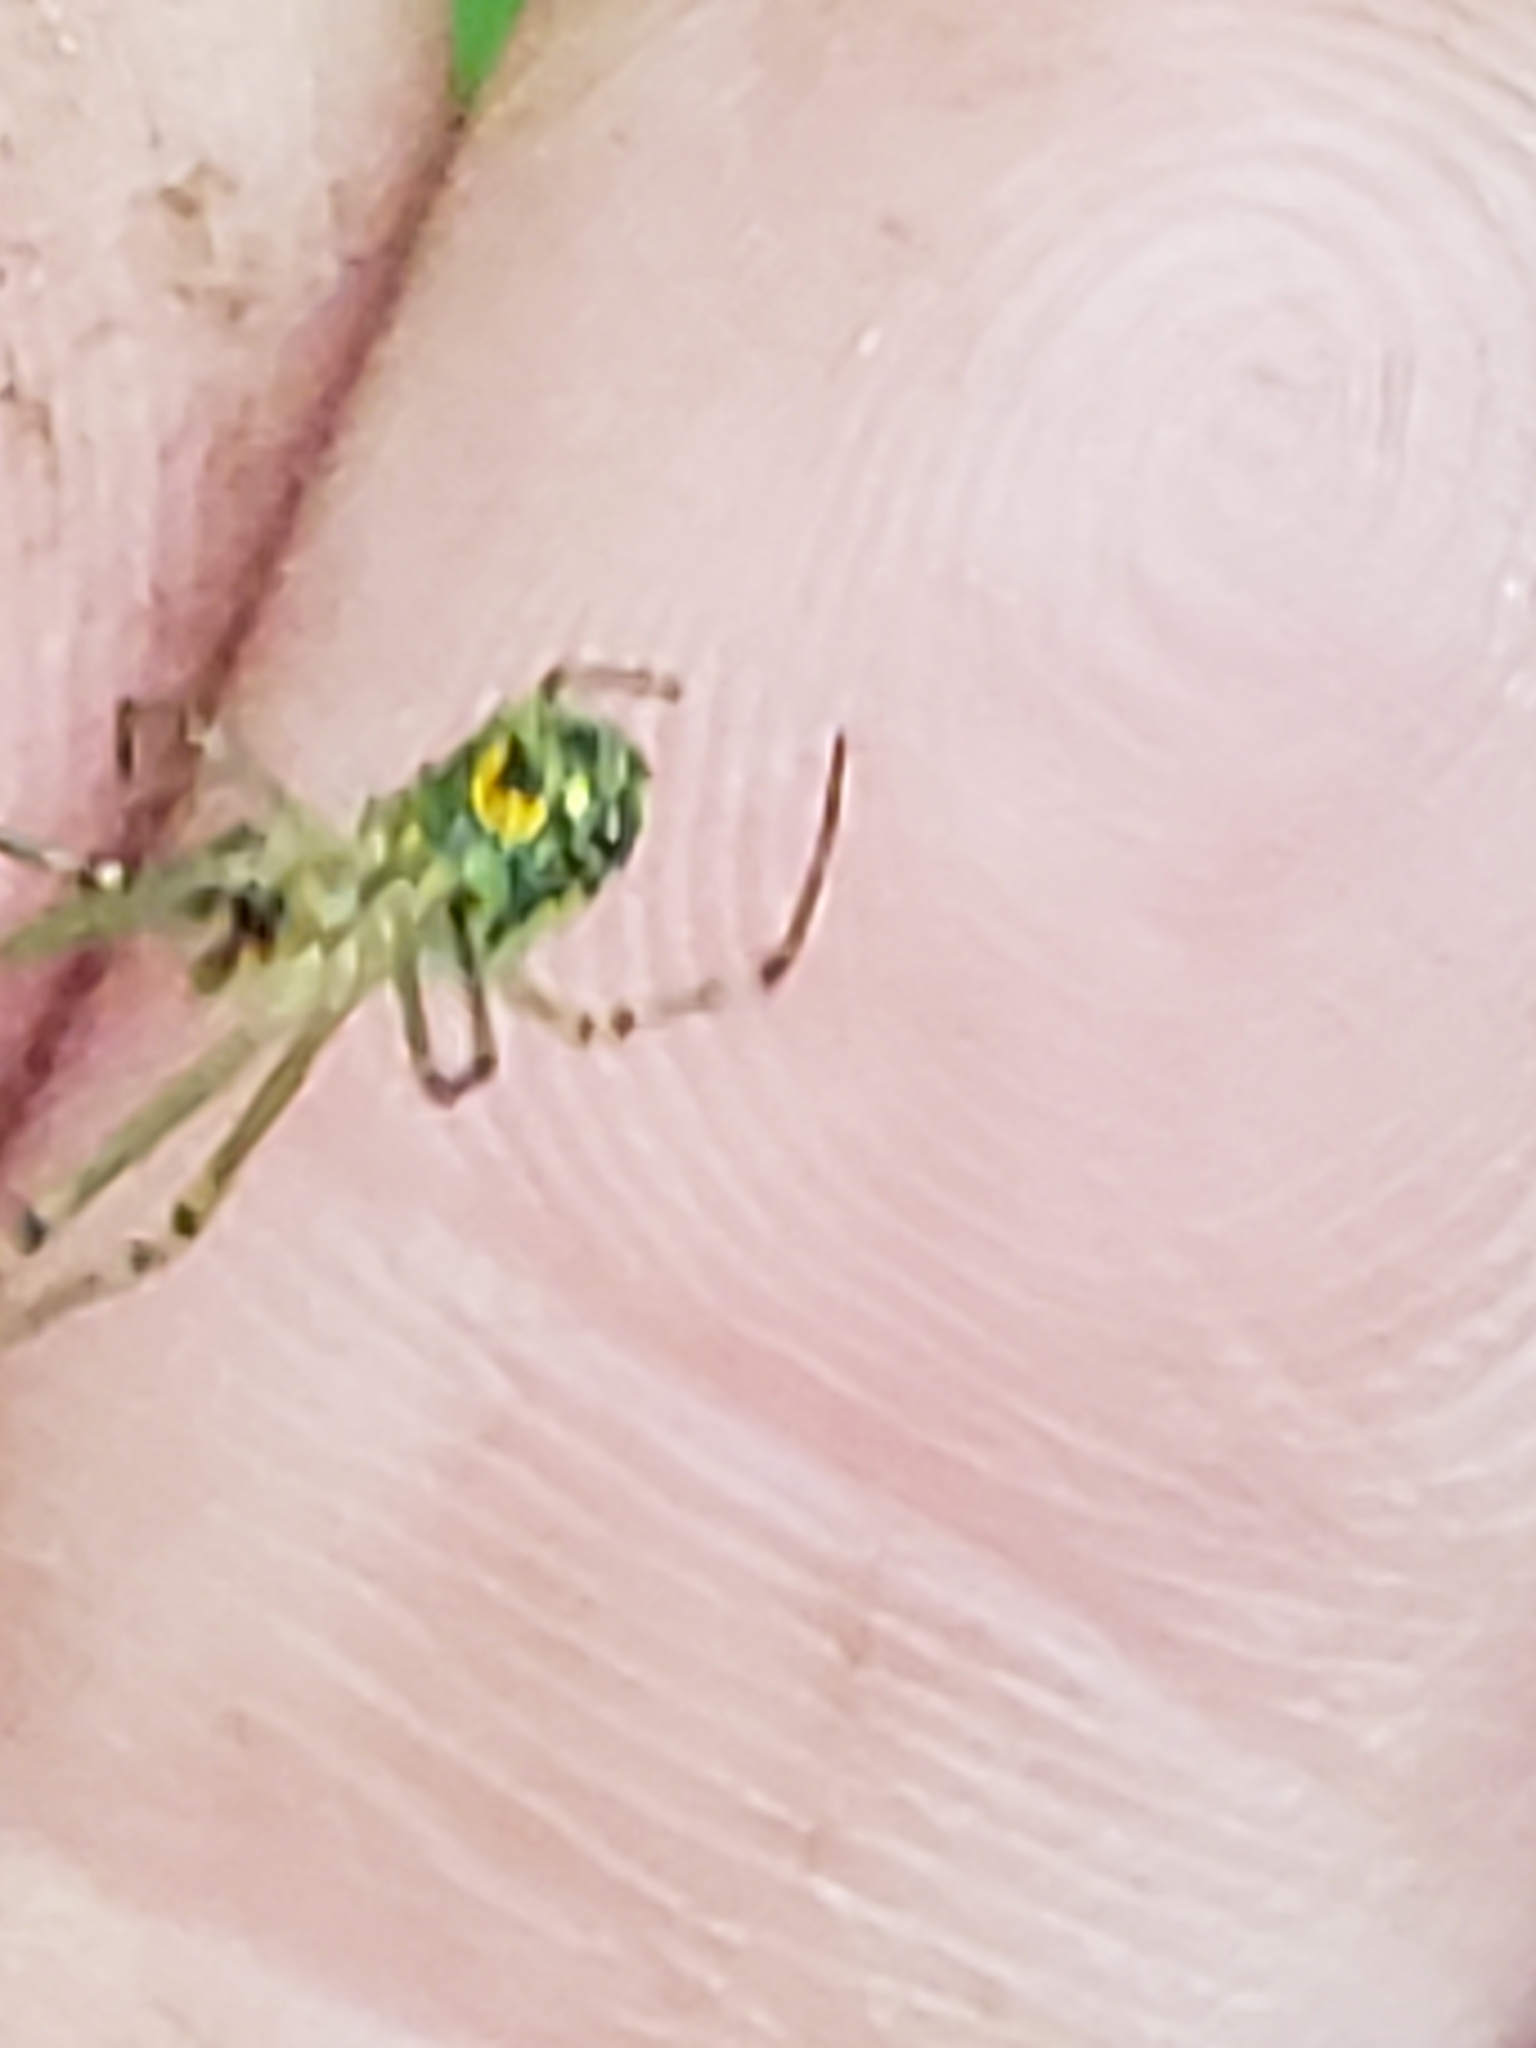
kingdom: Animalia
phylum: Arthropoda
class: Arachnida
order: Araneae
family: Tetragnathidae
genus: Leucauge
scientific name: Leucauge venusta
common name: Longjawed orb weavers
